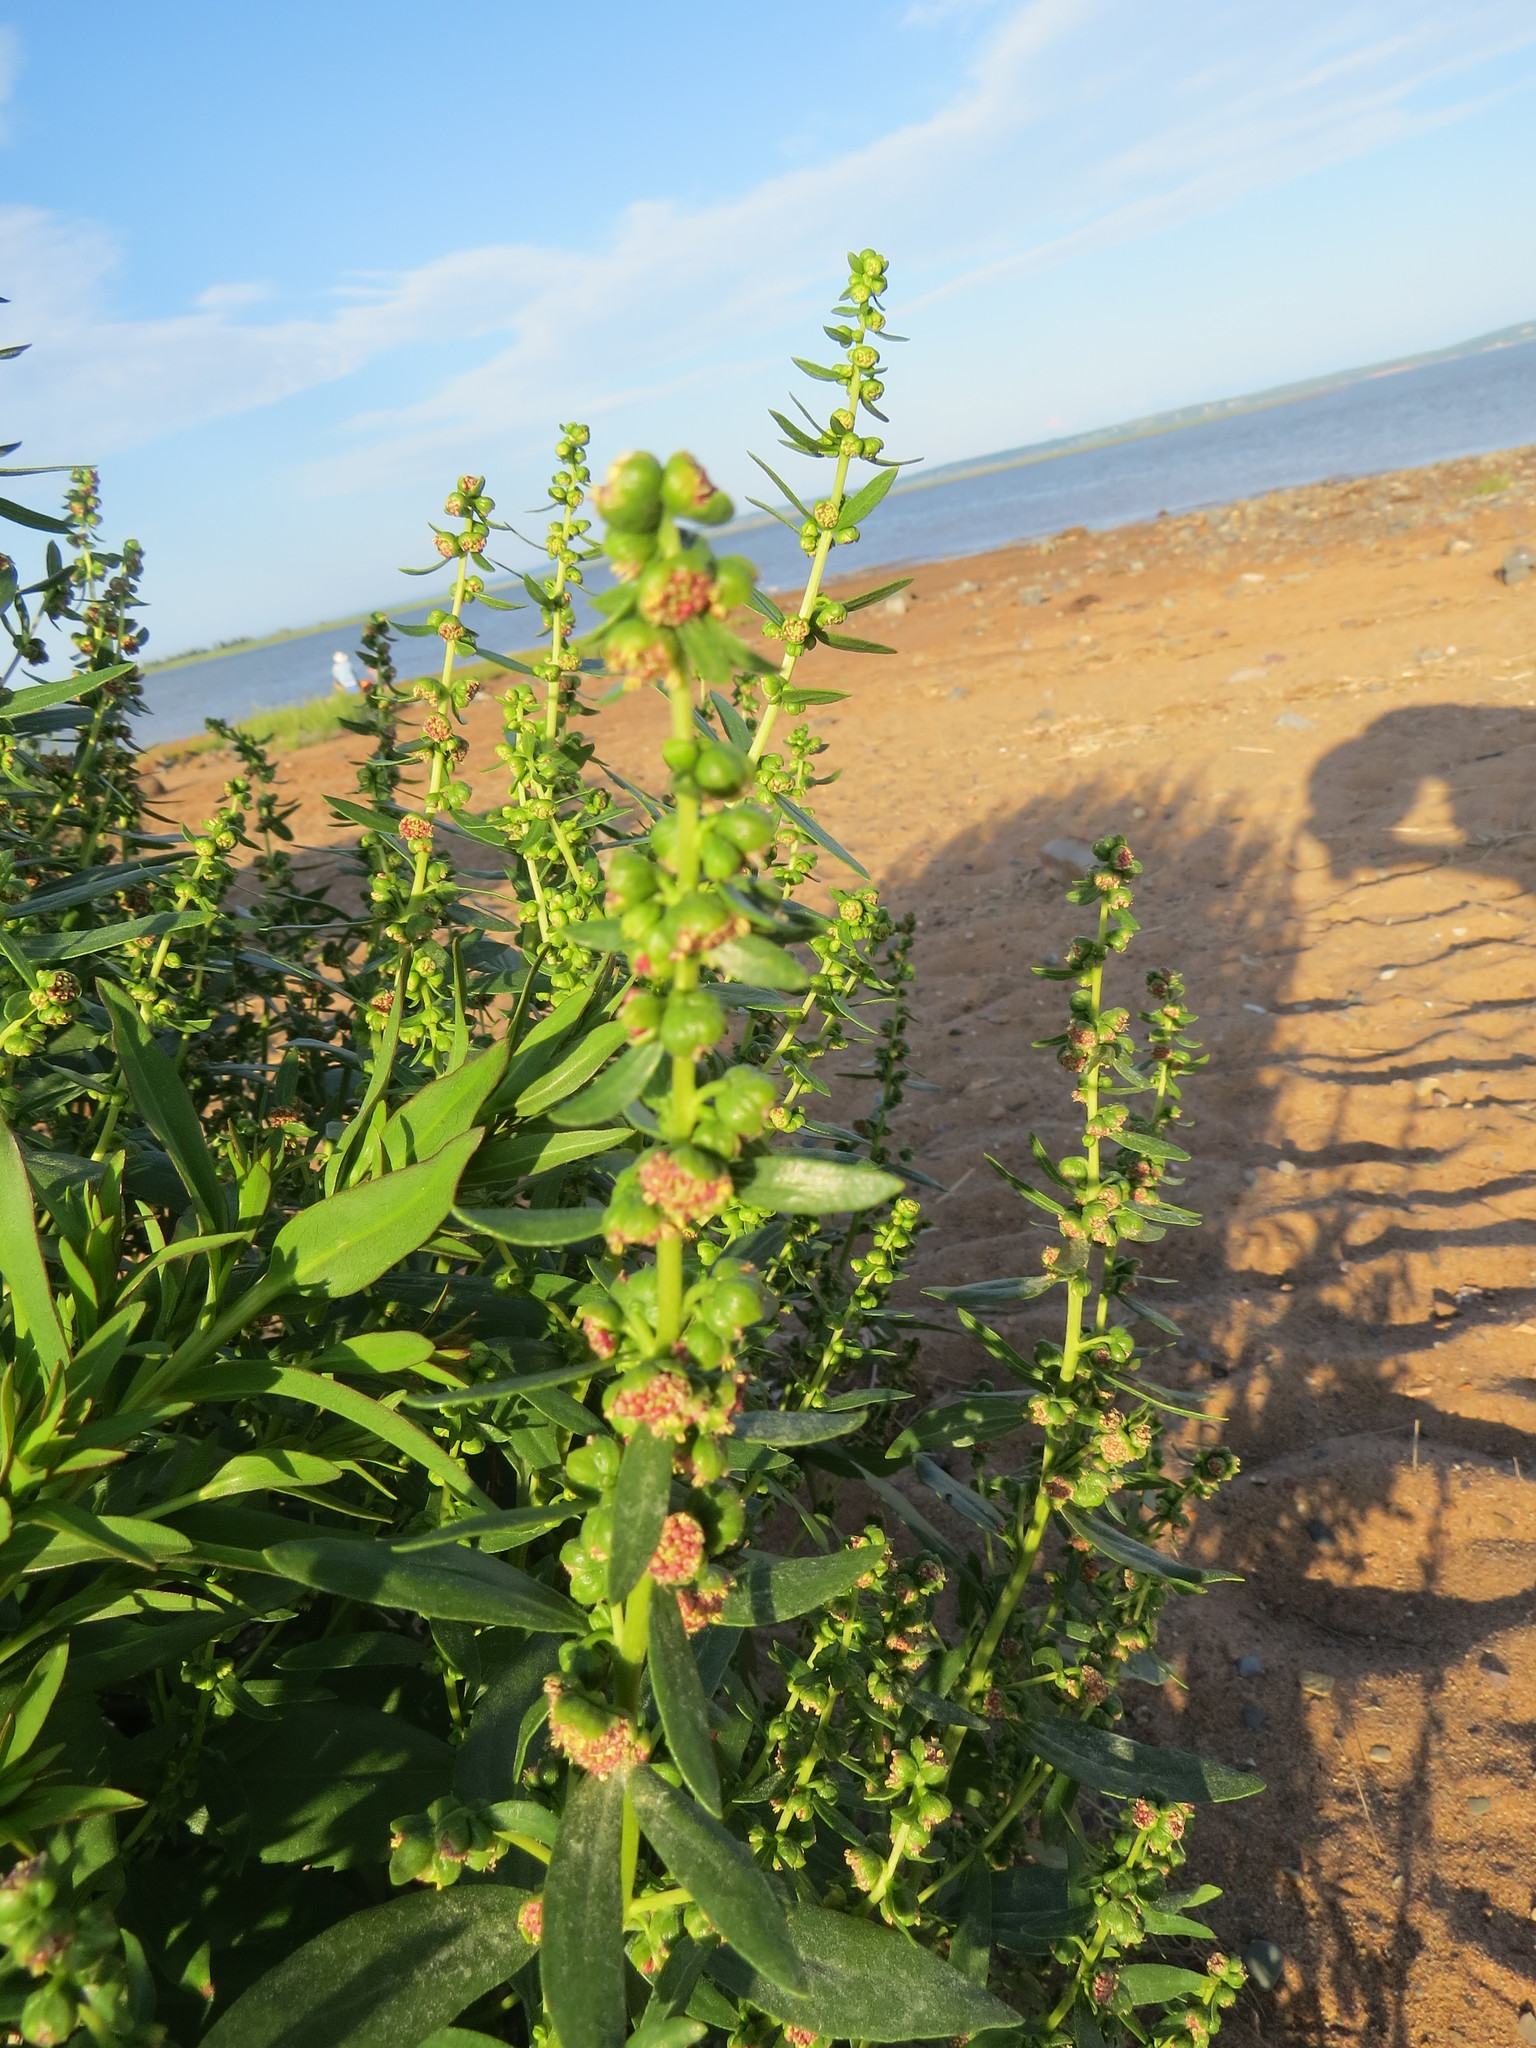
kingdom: Plantae
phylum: Tracheophyta
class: Magnoliopsida
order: Asterales
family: Asteraceae
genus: Iva
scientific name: Iva frutescens
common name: Big-leaved marsh-elder
